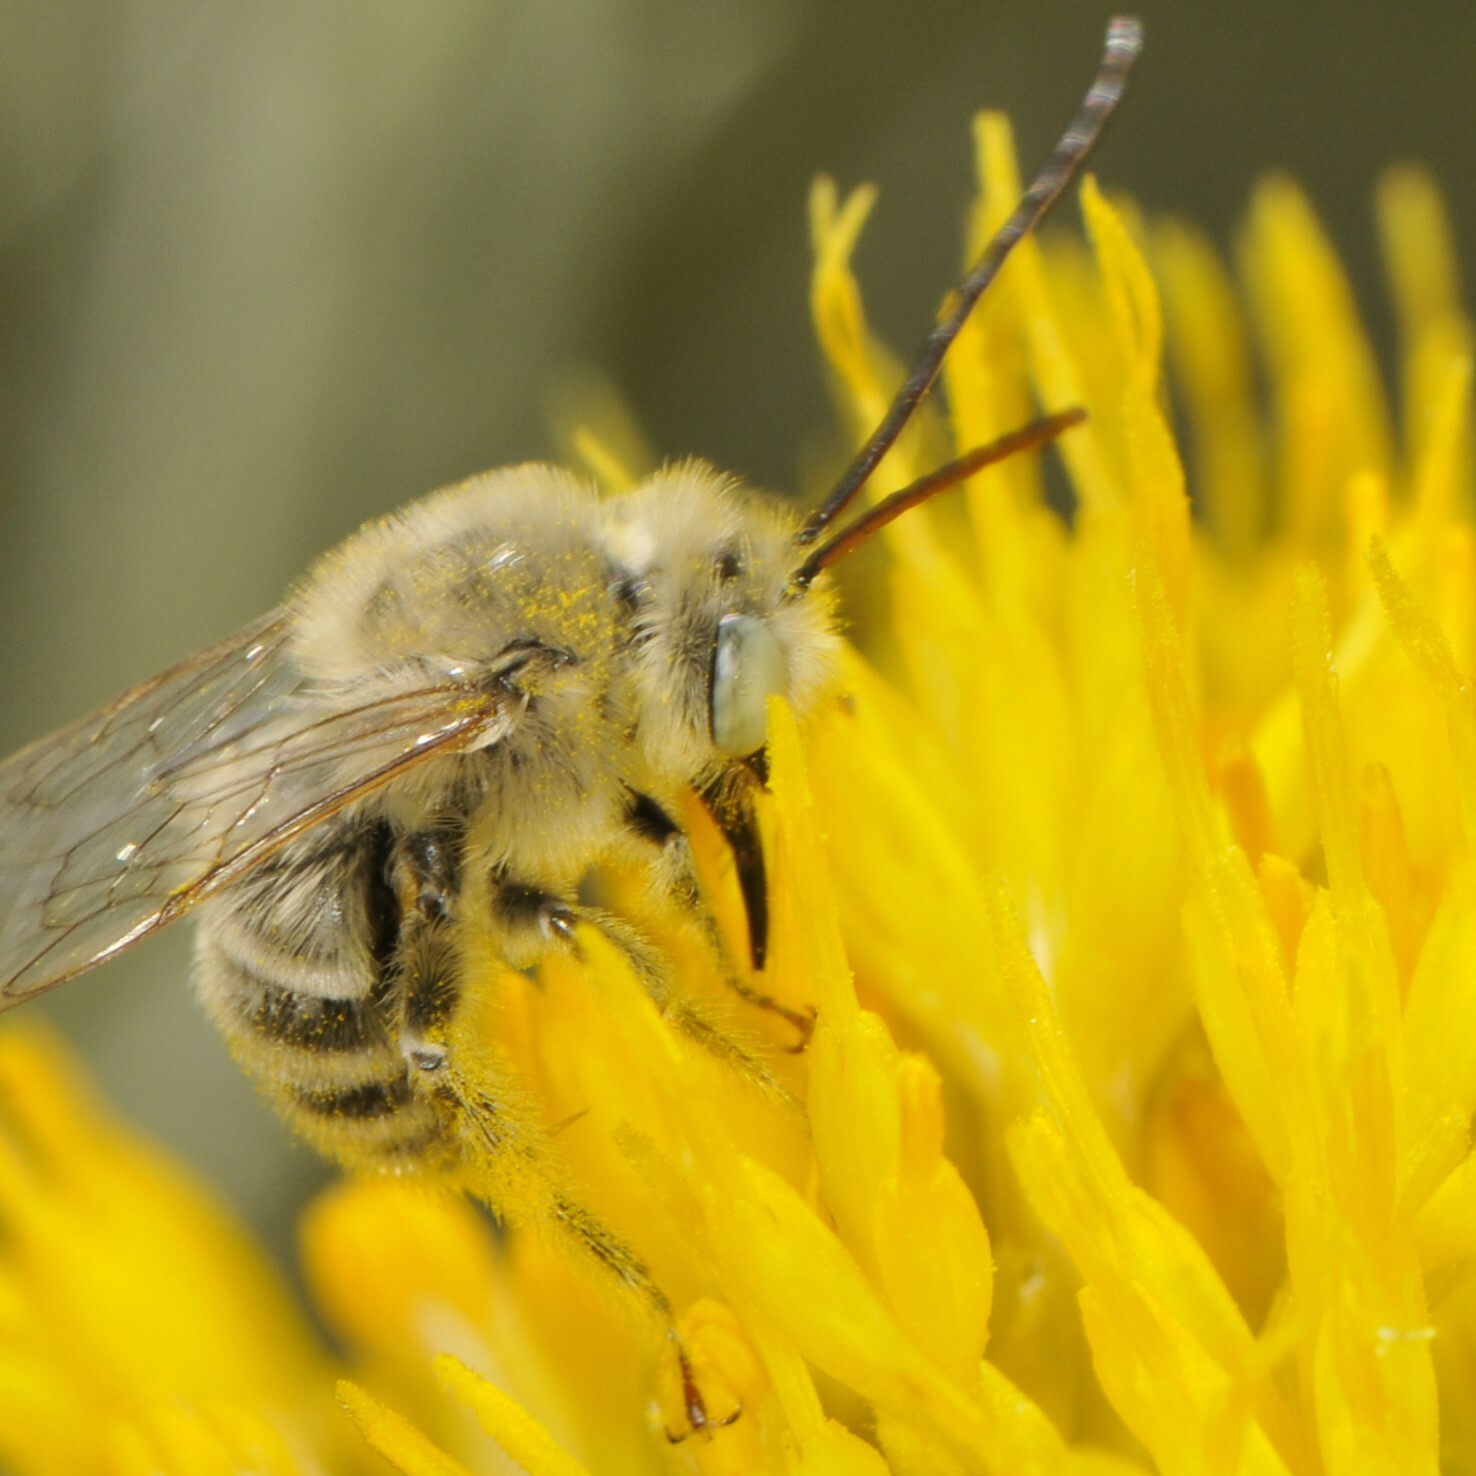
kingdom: Animalia
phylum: Arthropoda
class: Insecta
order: Hymenoptera
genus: Eumelissodes
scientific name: Eumelissodes
